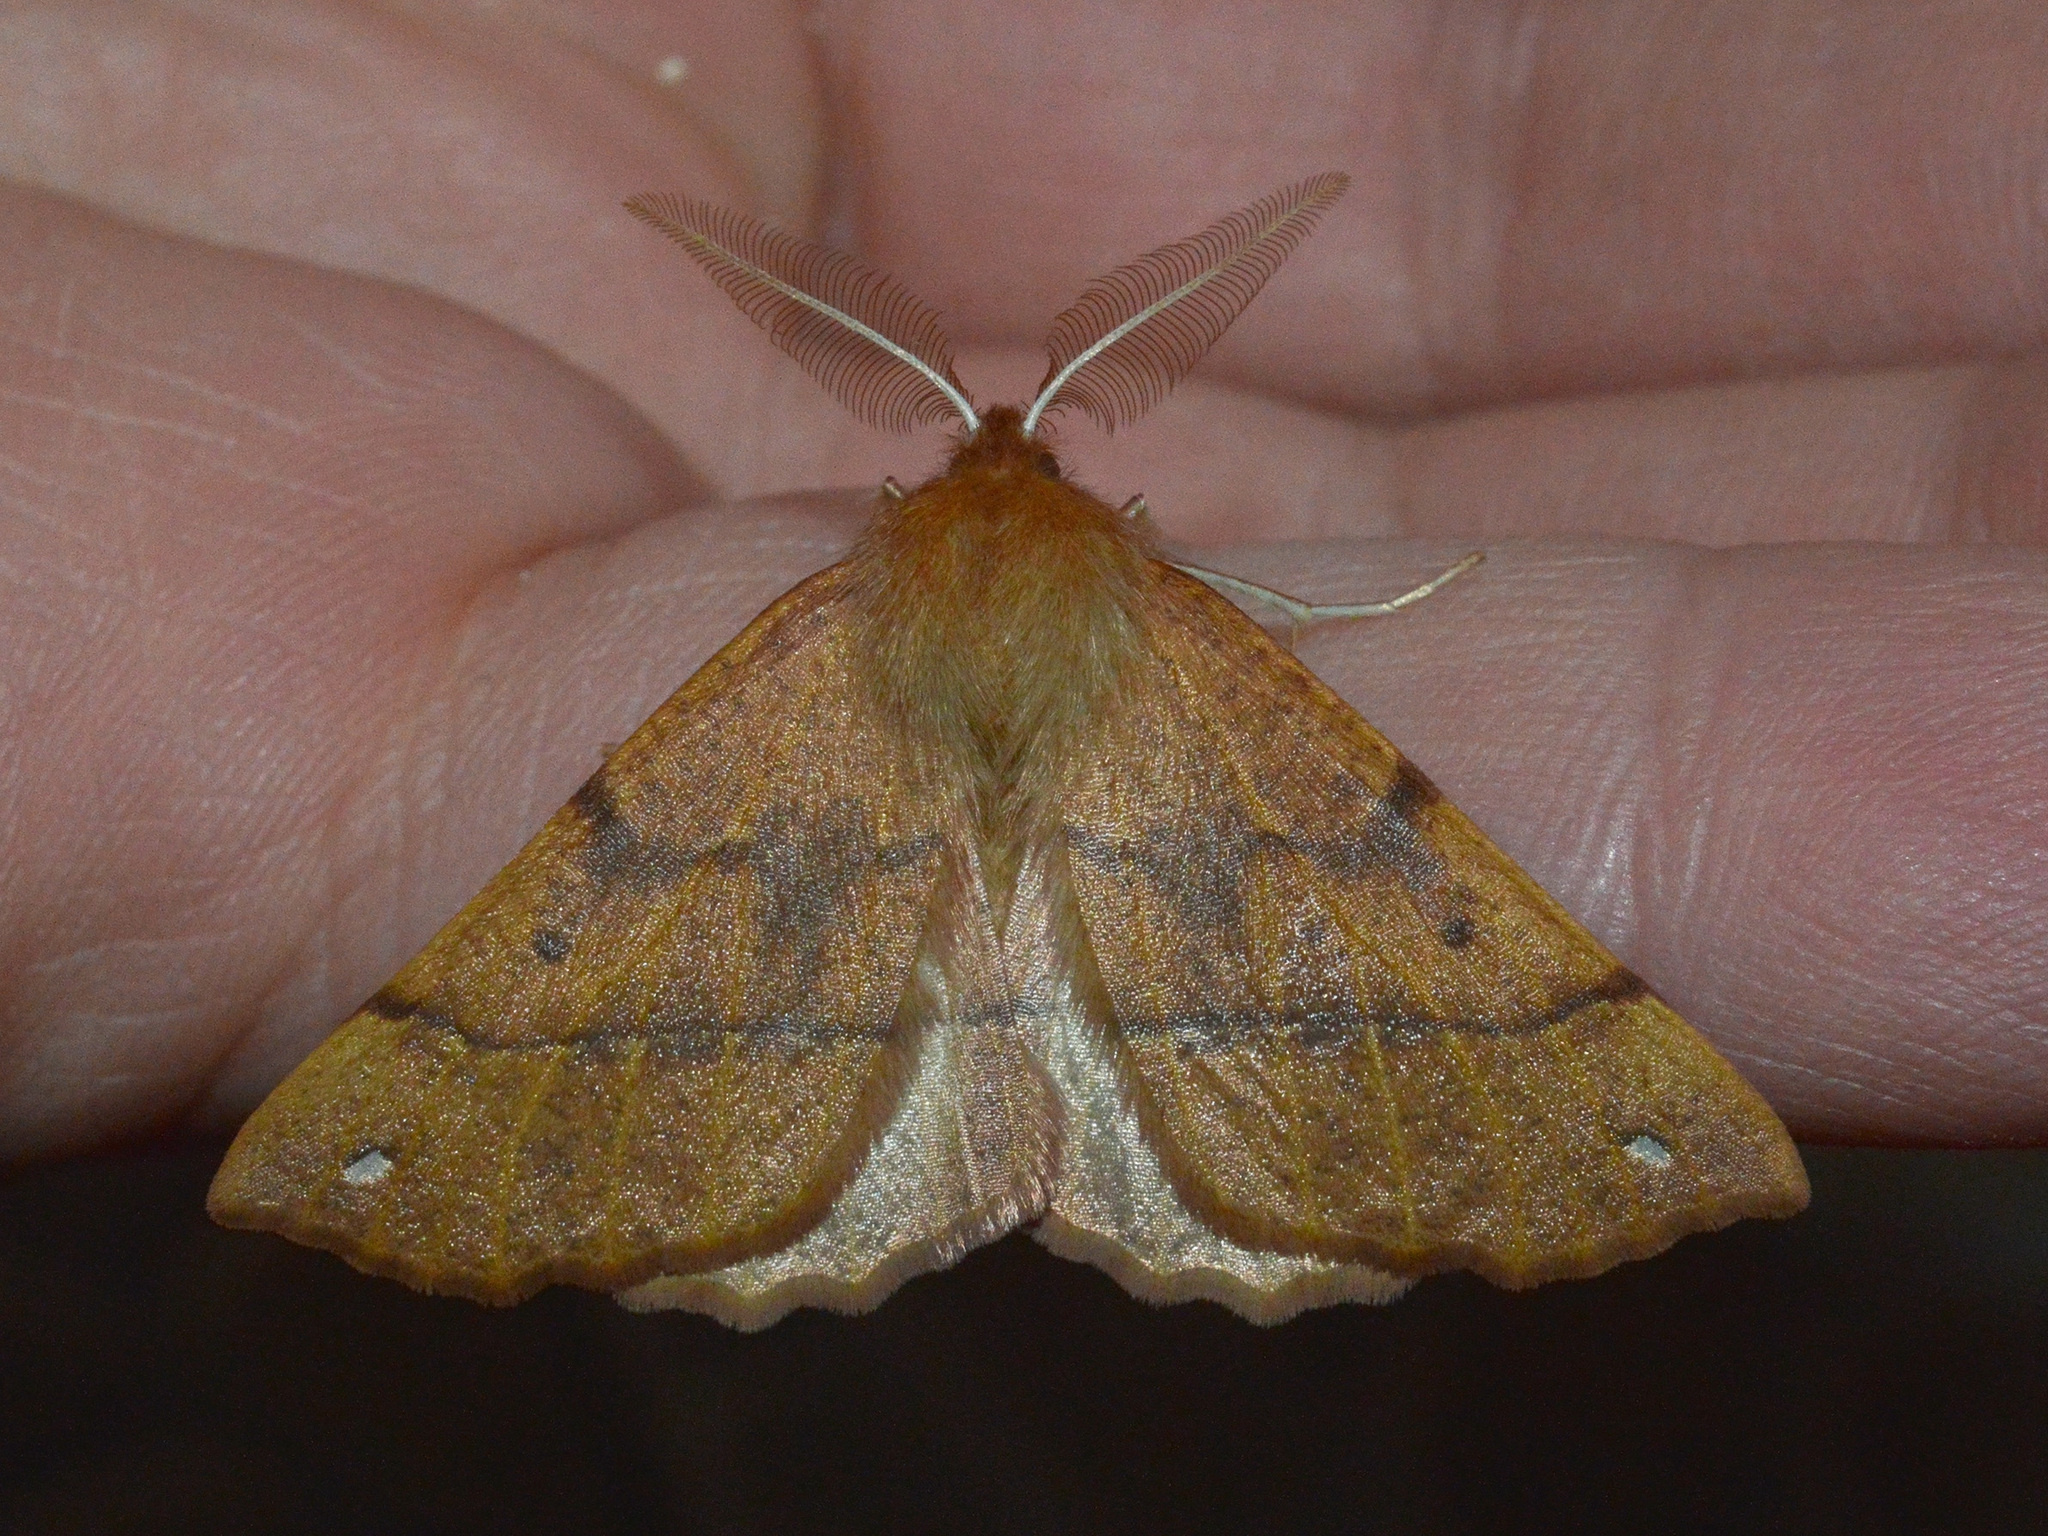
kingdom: Animalia
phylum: Arthropoda
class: Insecta
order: Lepidoptera
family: Geometridae
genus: Colotois
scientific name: Colotois pennaria
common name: Feathered thorn
